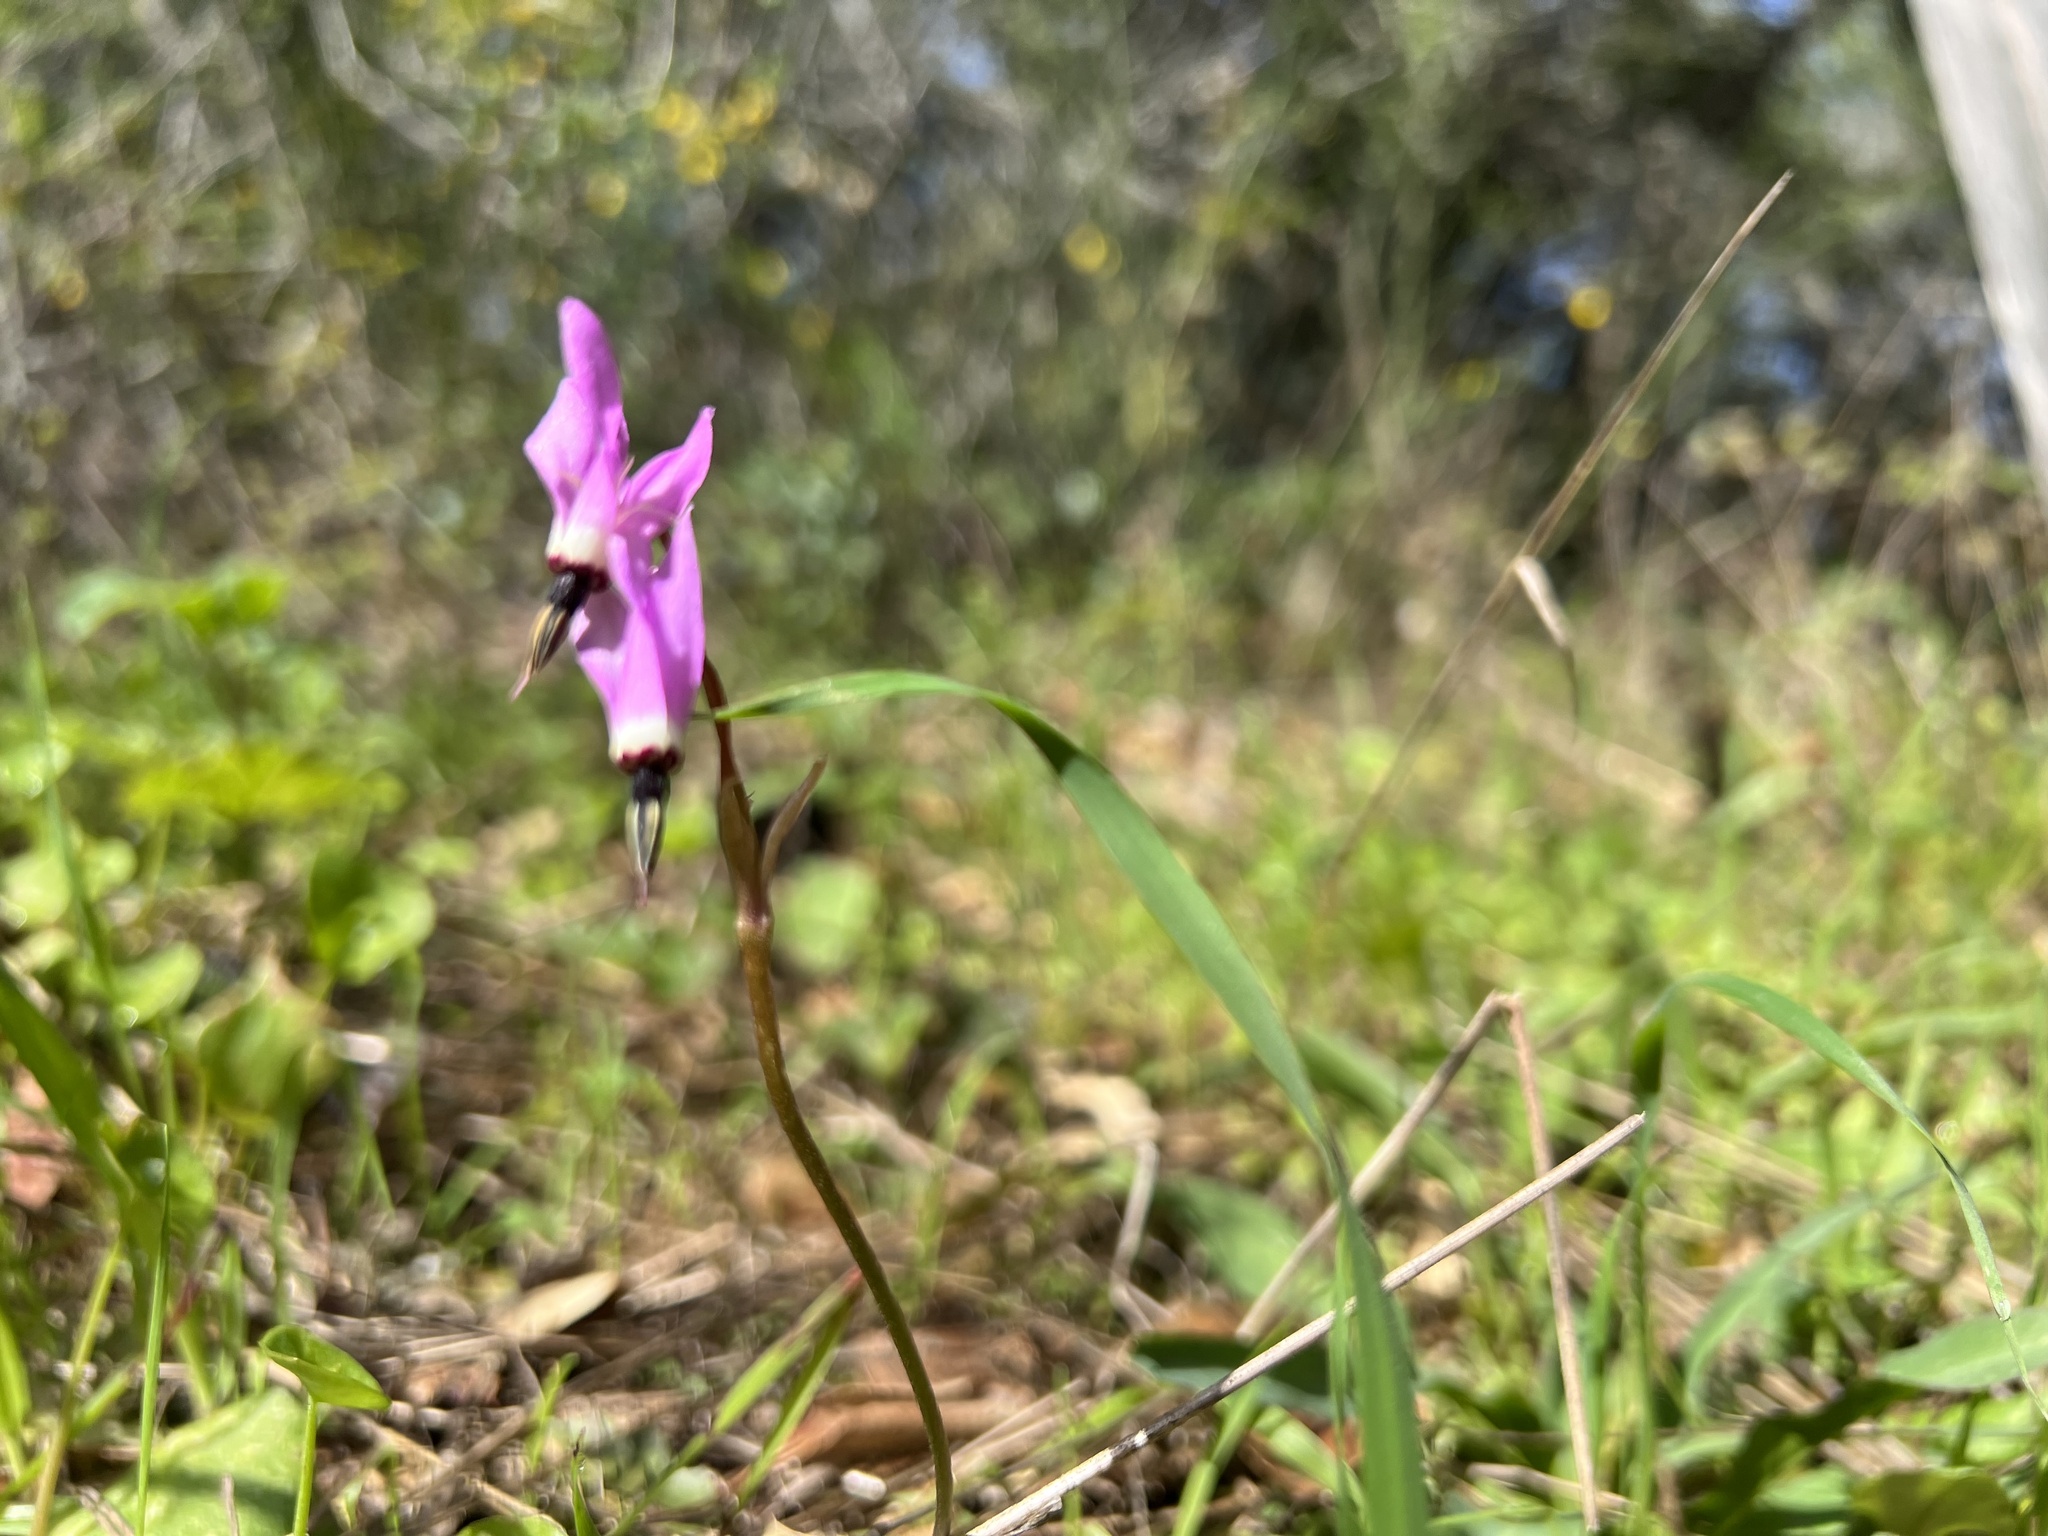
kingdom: Plantae
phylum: Tracheophyta
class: Magnoliopsida
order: Ericales
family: Primulaceae
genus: Dodecatheon
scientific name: Dodecatheon hendersonii
